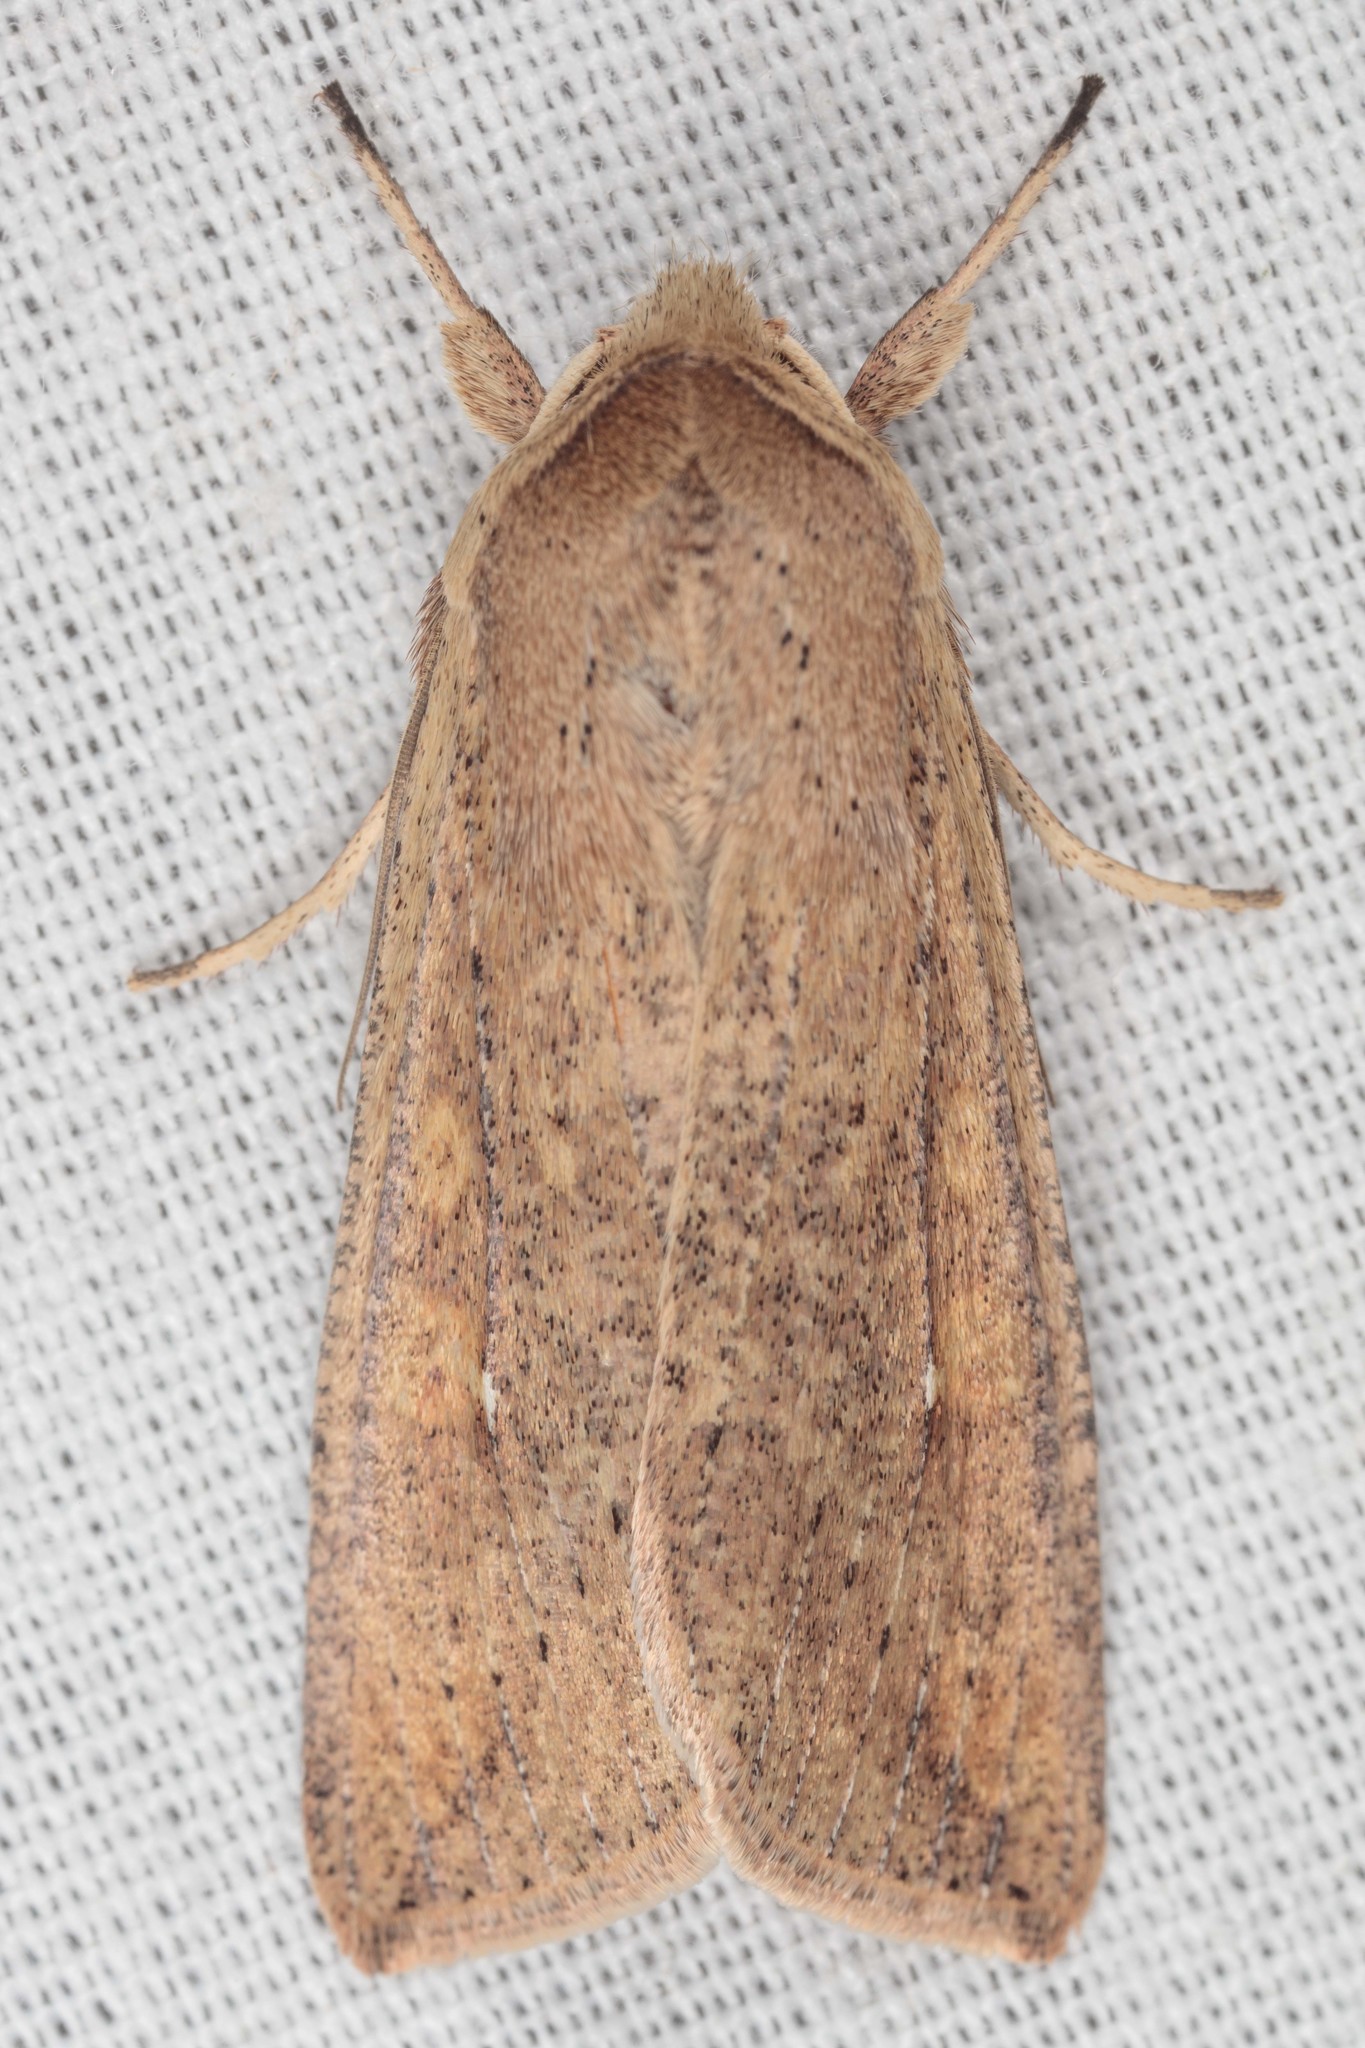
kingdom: Animalia
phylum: Arthropoda
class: Insecta
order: Lepidoptera
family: Noctuidae
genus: Mythimna
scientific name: Mythimna unipuncta
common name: White-speck
